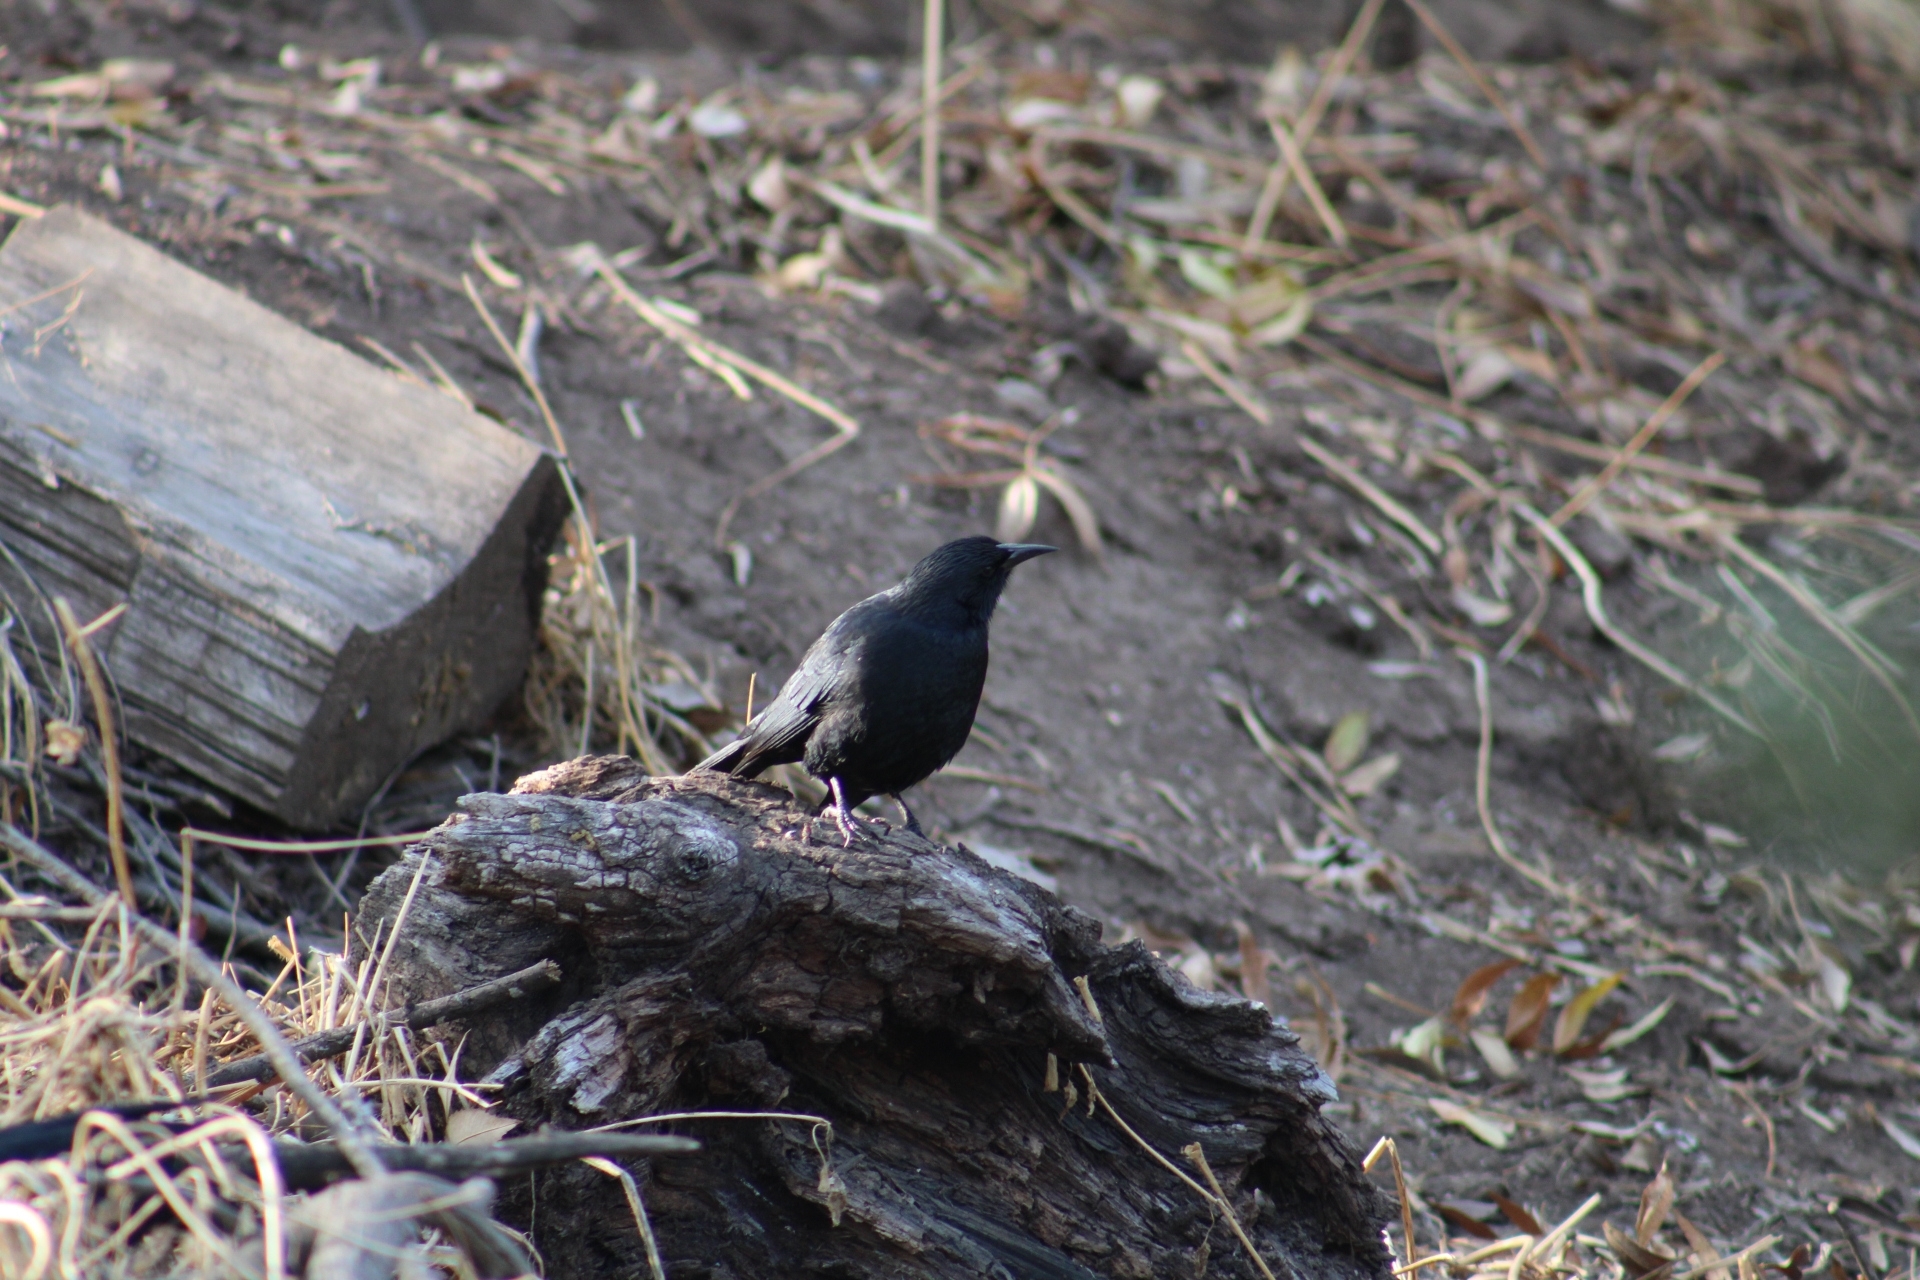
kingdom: Animalia
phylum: Chordata
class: Aves
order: Passeriformes
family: Icteridae
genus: Curaeus
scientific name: Curaeus curaeus
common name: Austral blackbird
